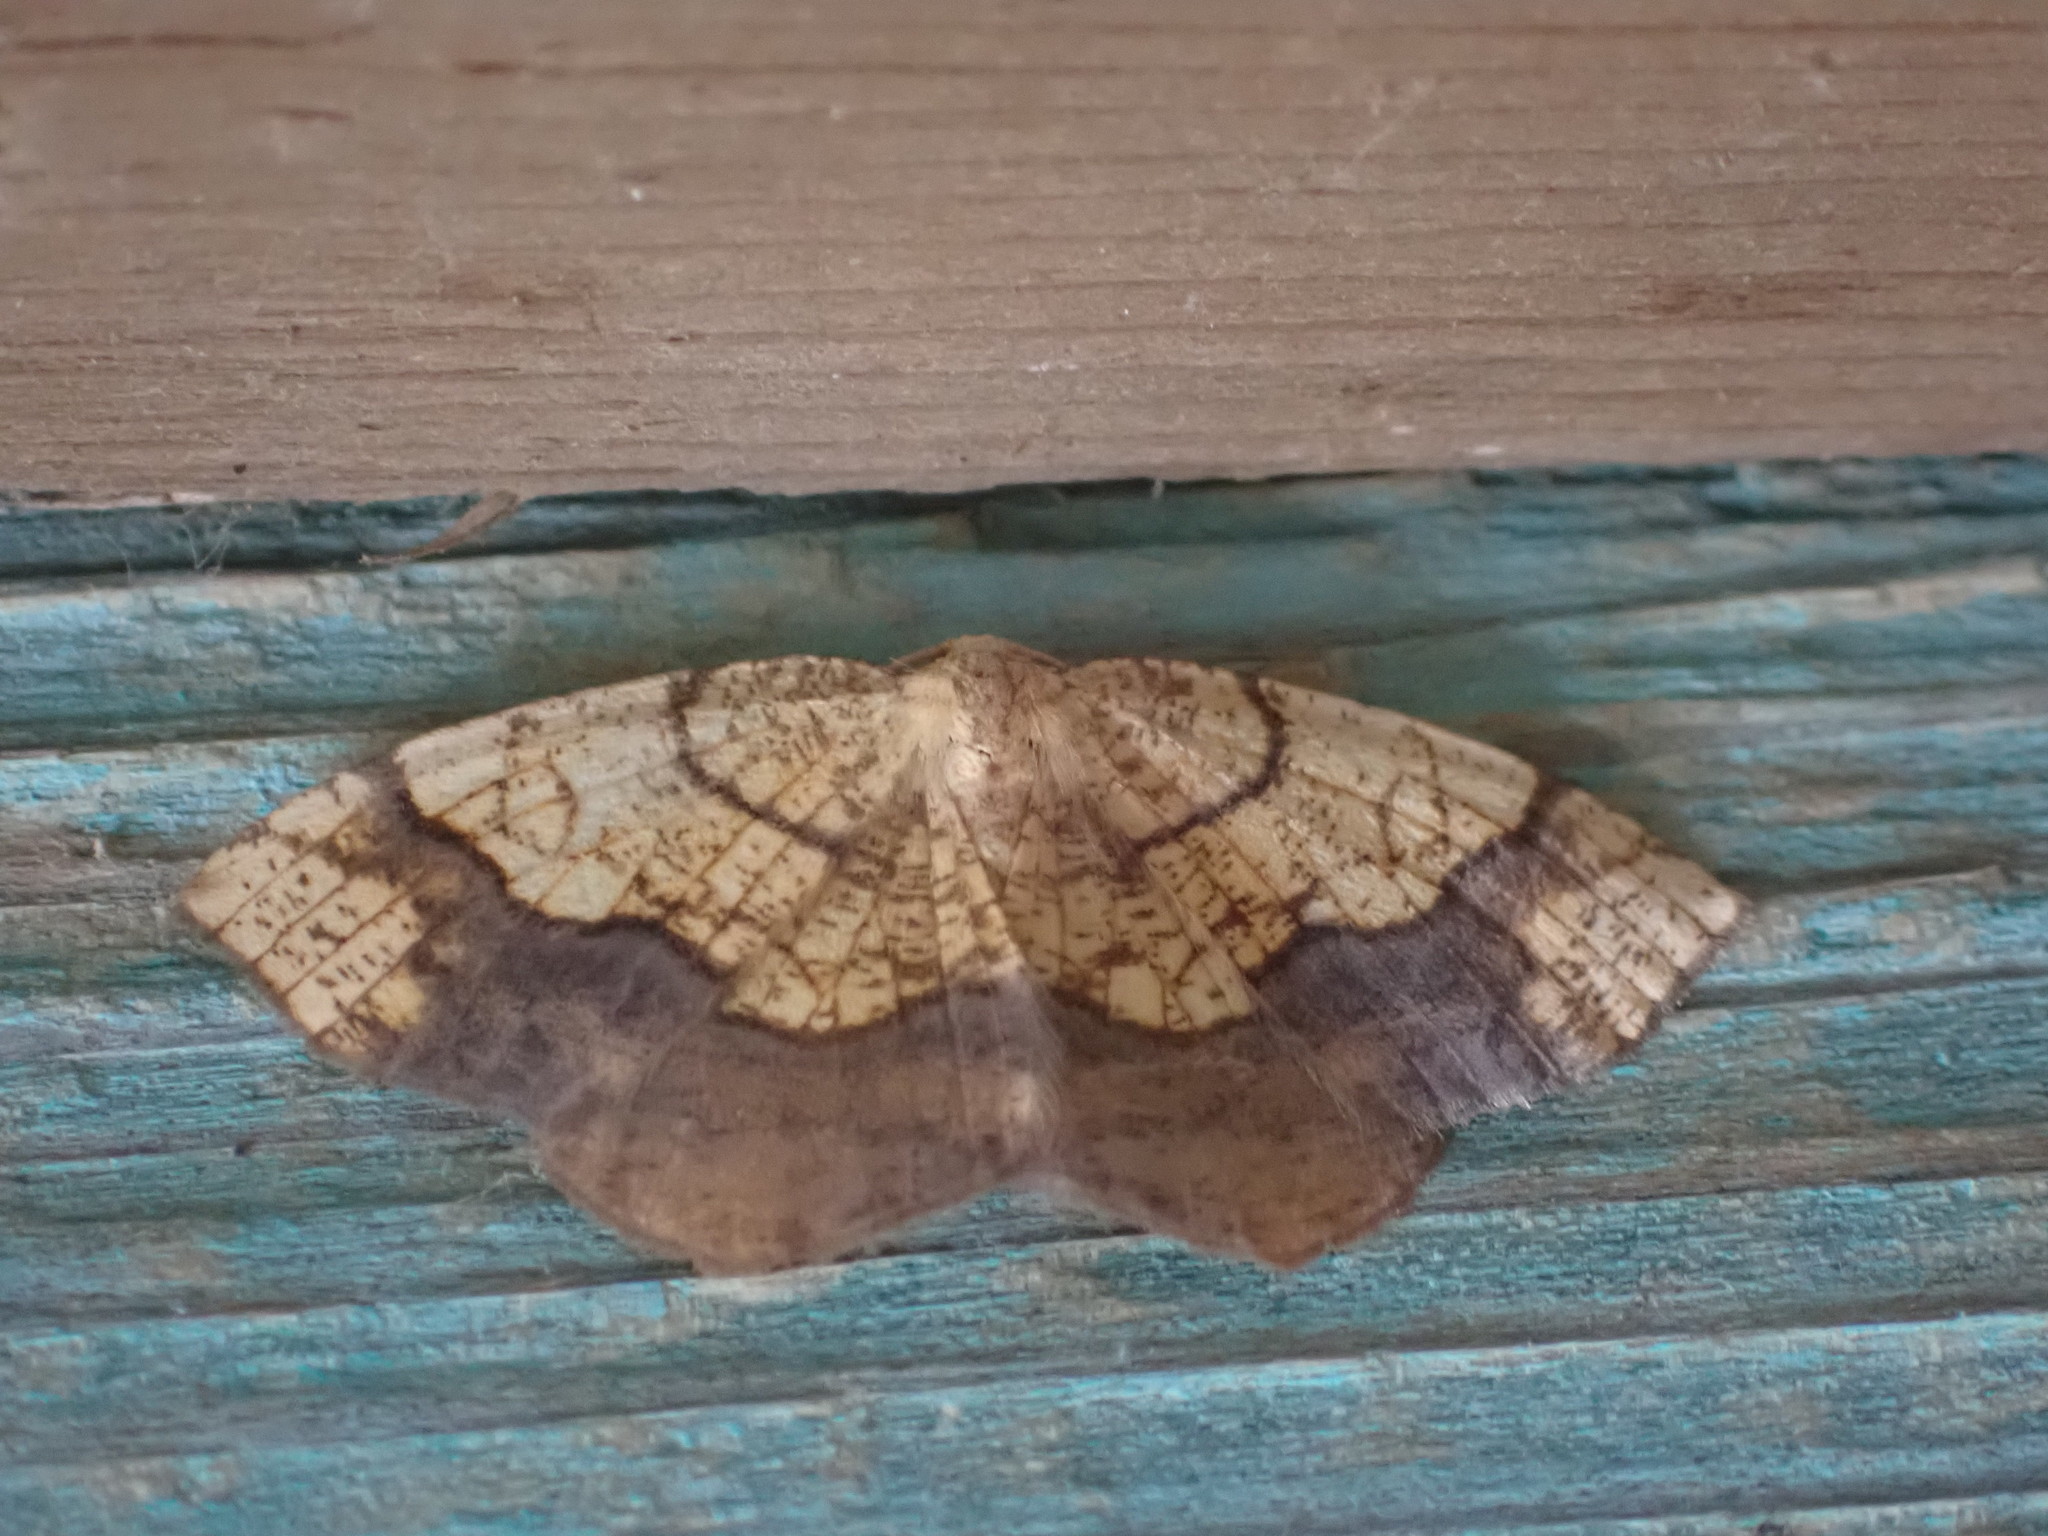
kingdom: Animalia
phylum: Arthropoda
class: Insecta
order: Lepidoptera
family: Geometridae
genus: Nematocampa
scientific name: Nematocampa resistaria
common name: Horned spanworm moth
